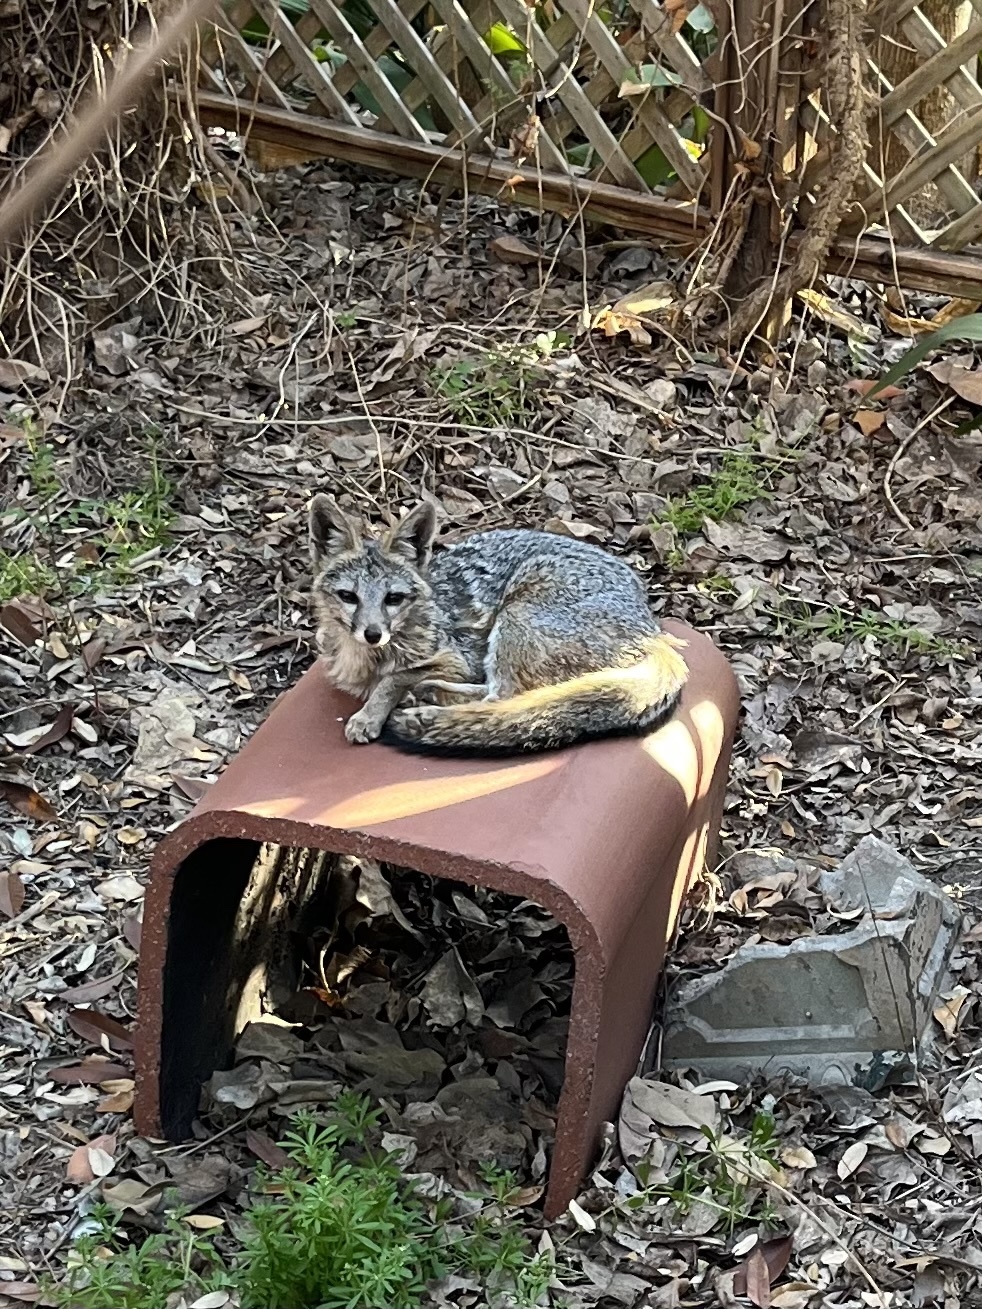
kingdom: Animalia
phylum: Chordata
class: Mammalia
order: Carnivora
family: Canidae
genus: Urocyon
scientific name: Urocyon cinereoargenteus
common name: Gray fox
